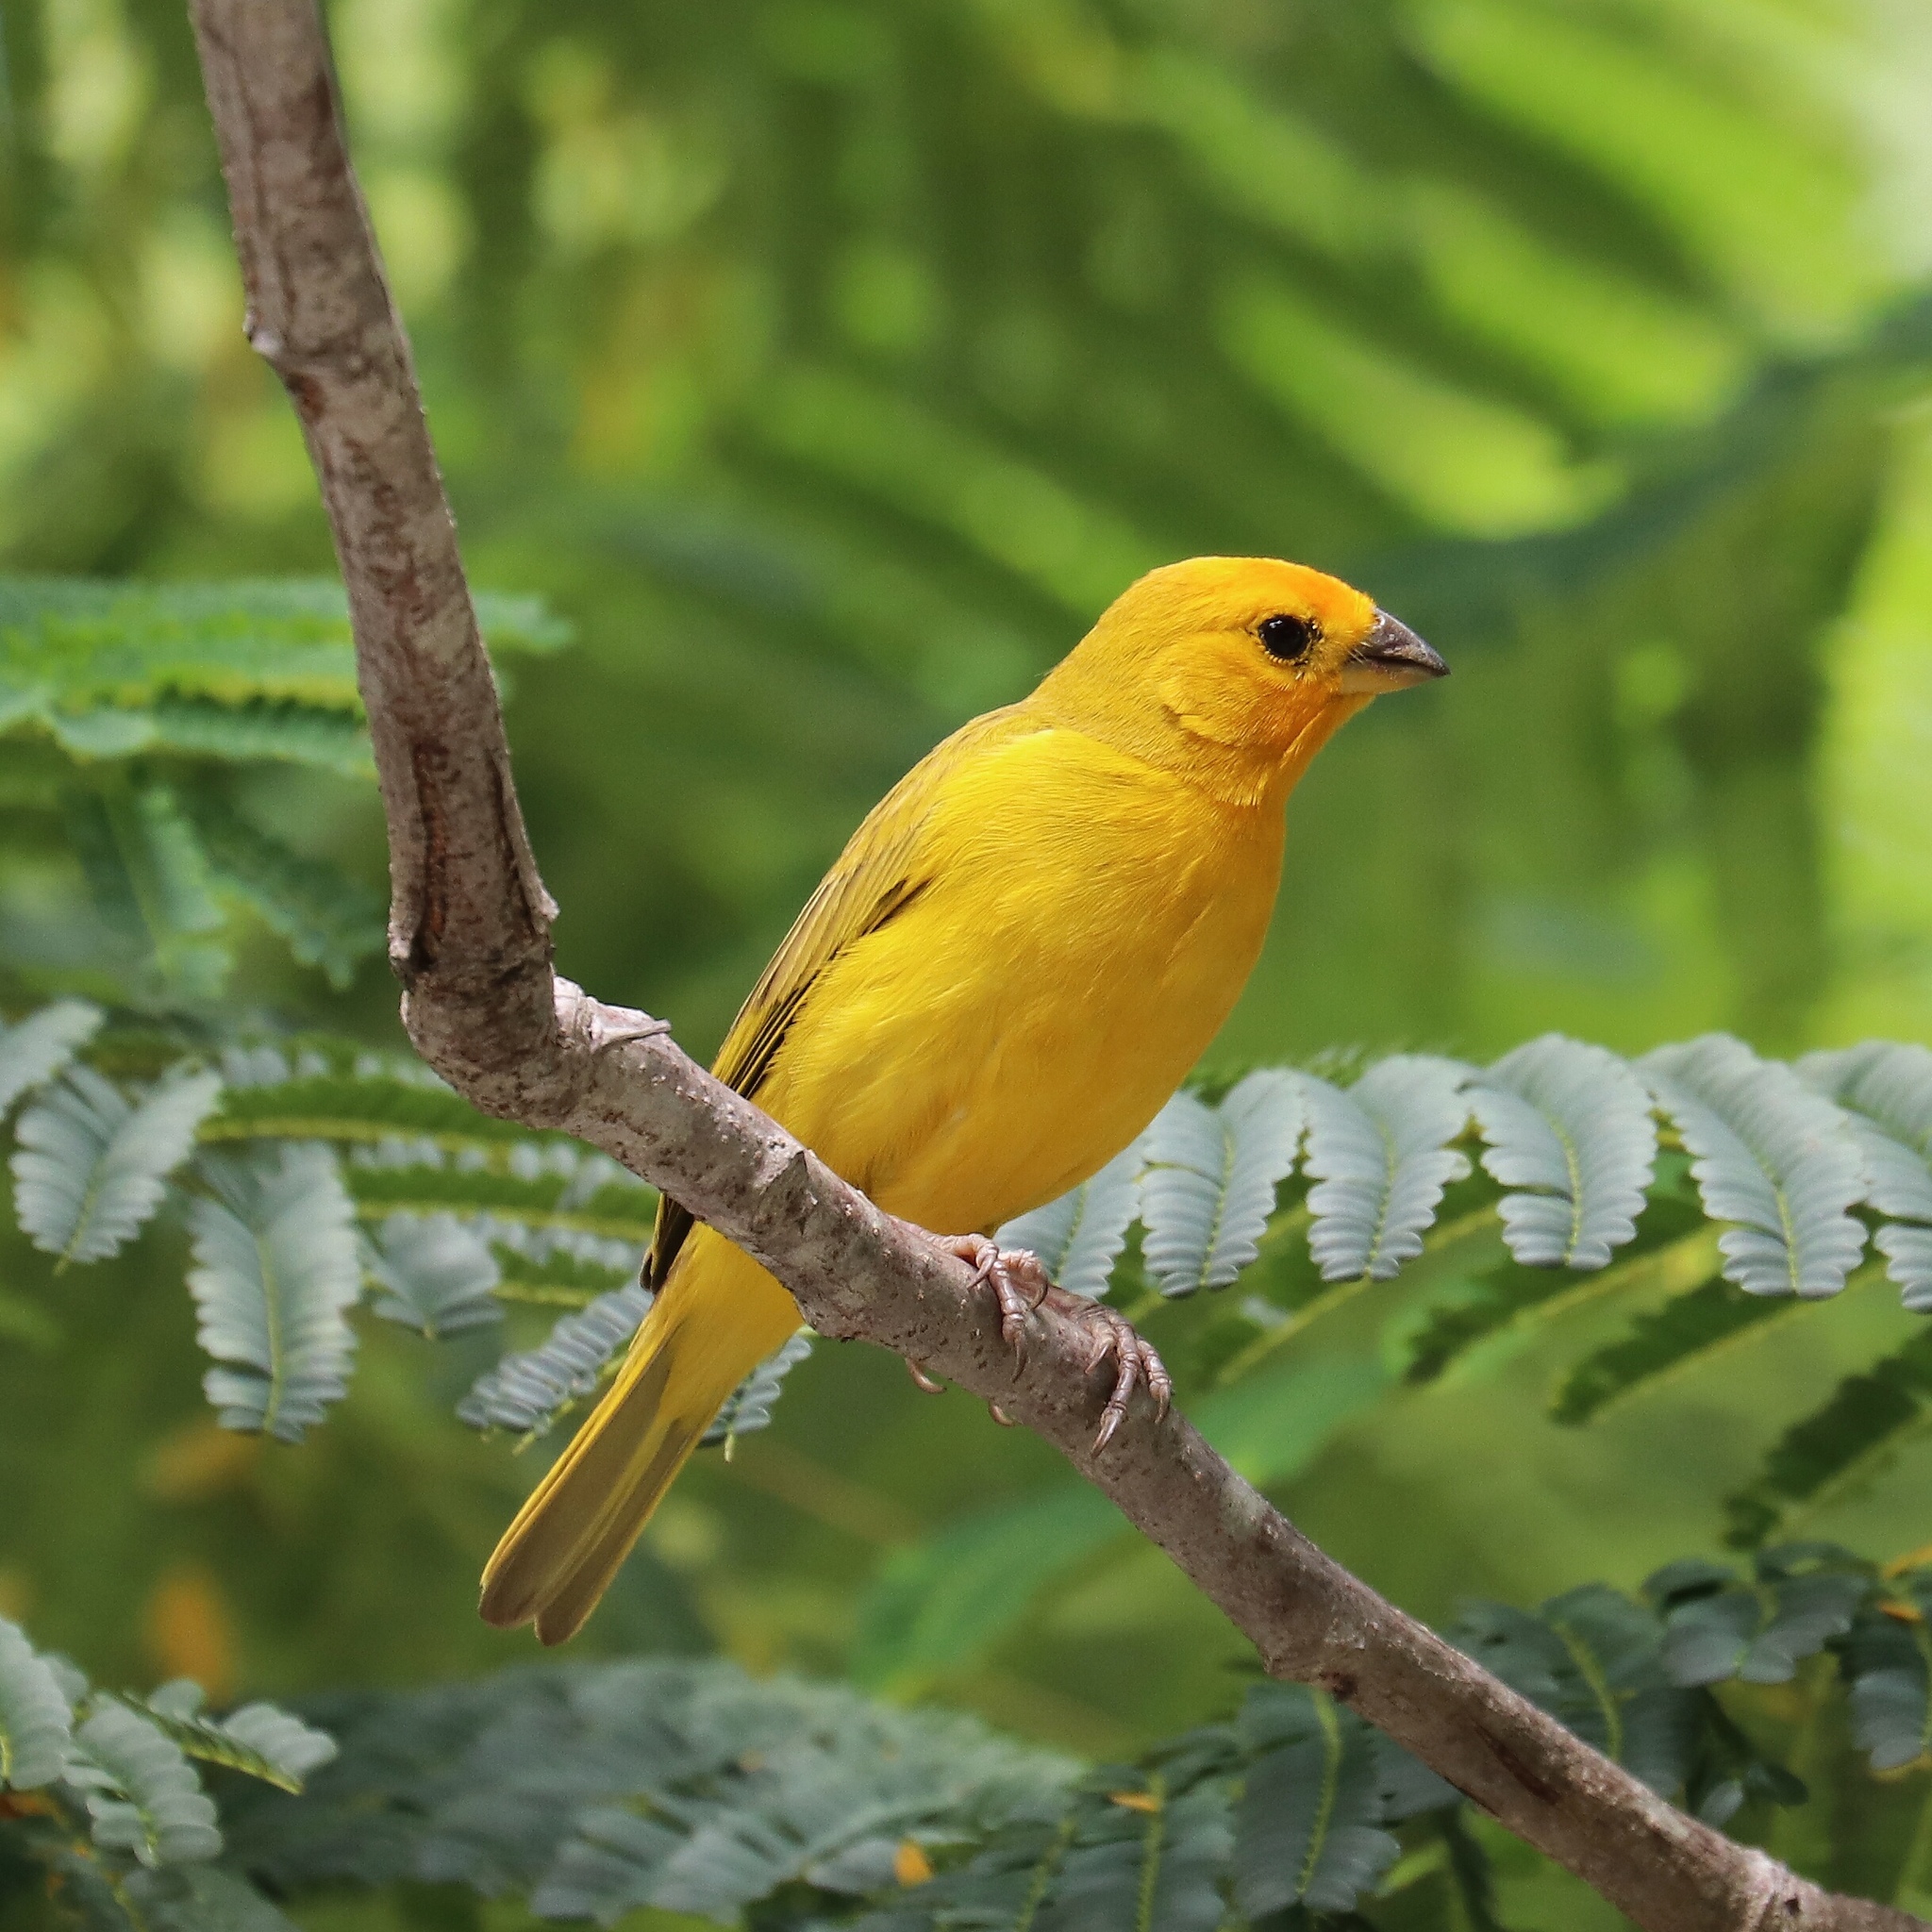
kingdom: Animalia
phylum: Chordata
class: Aves
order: Passeriformes
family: Thraupidae
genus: Sicalis
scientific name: Sicalis flaveola
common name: Saffron finch
